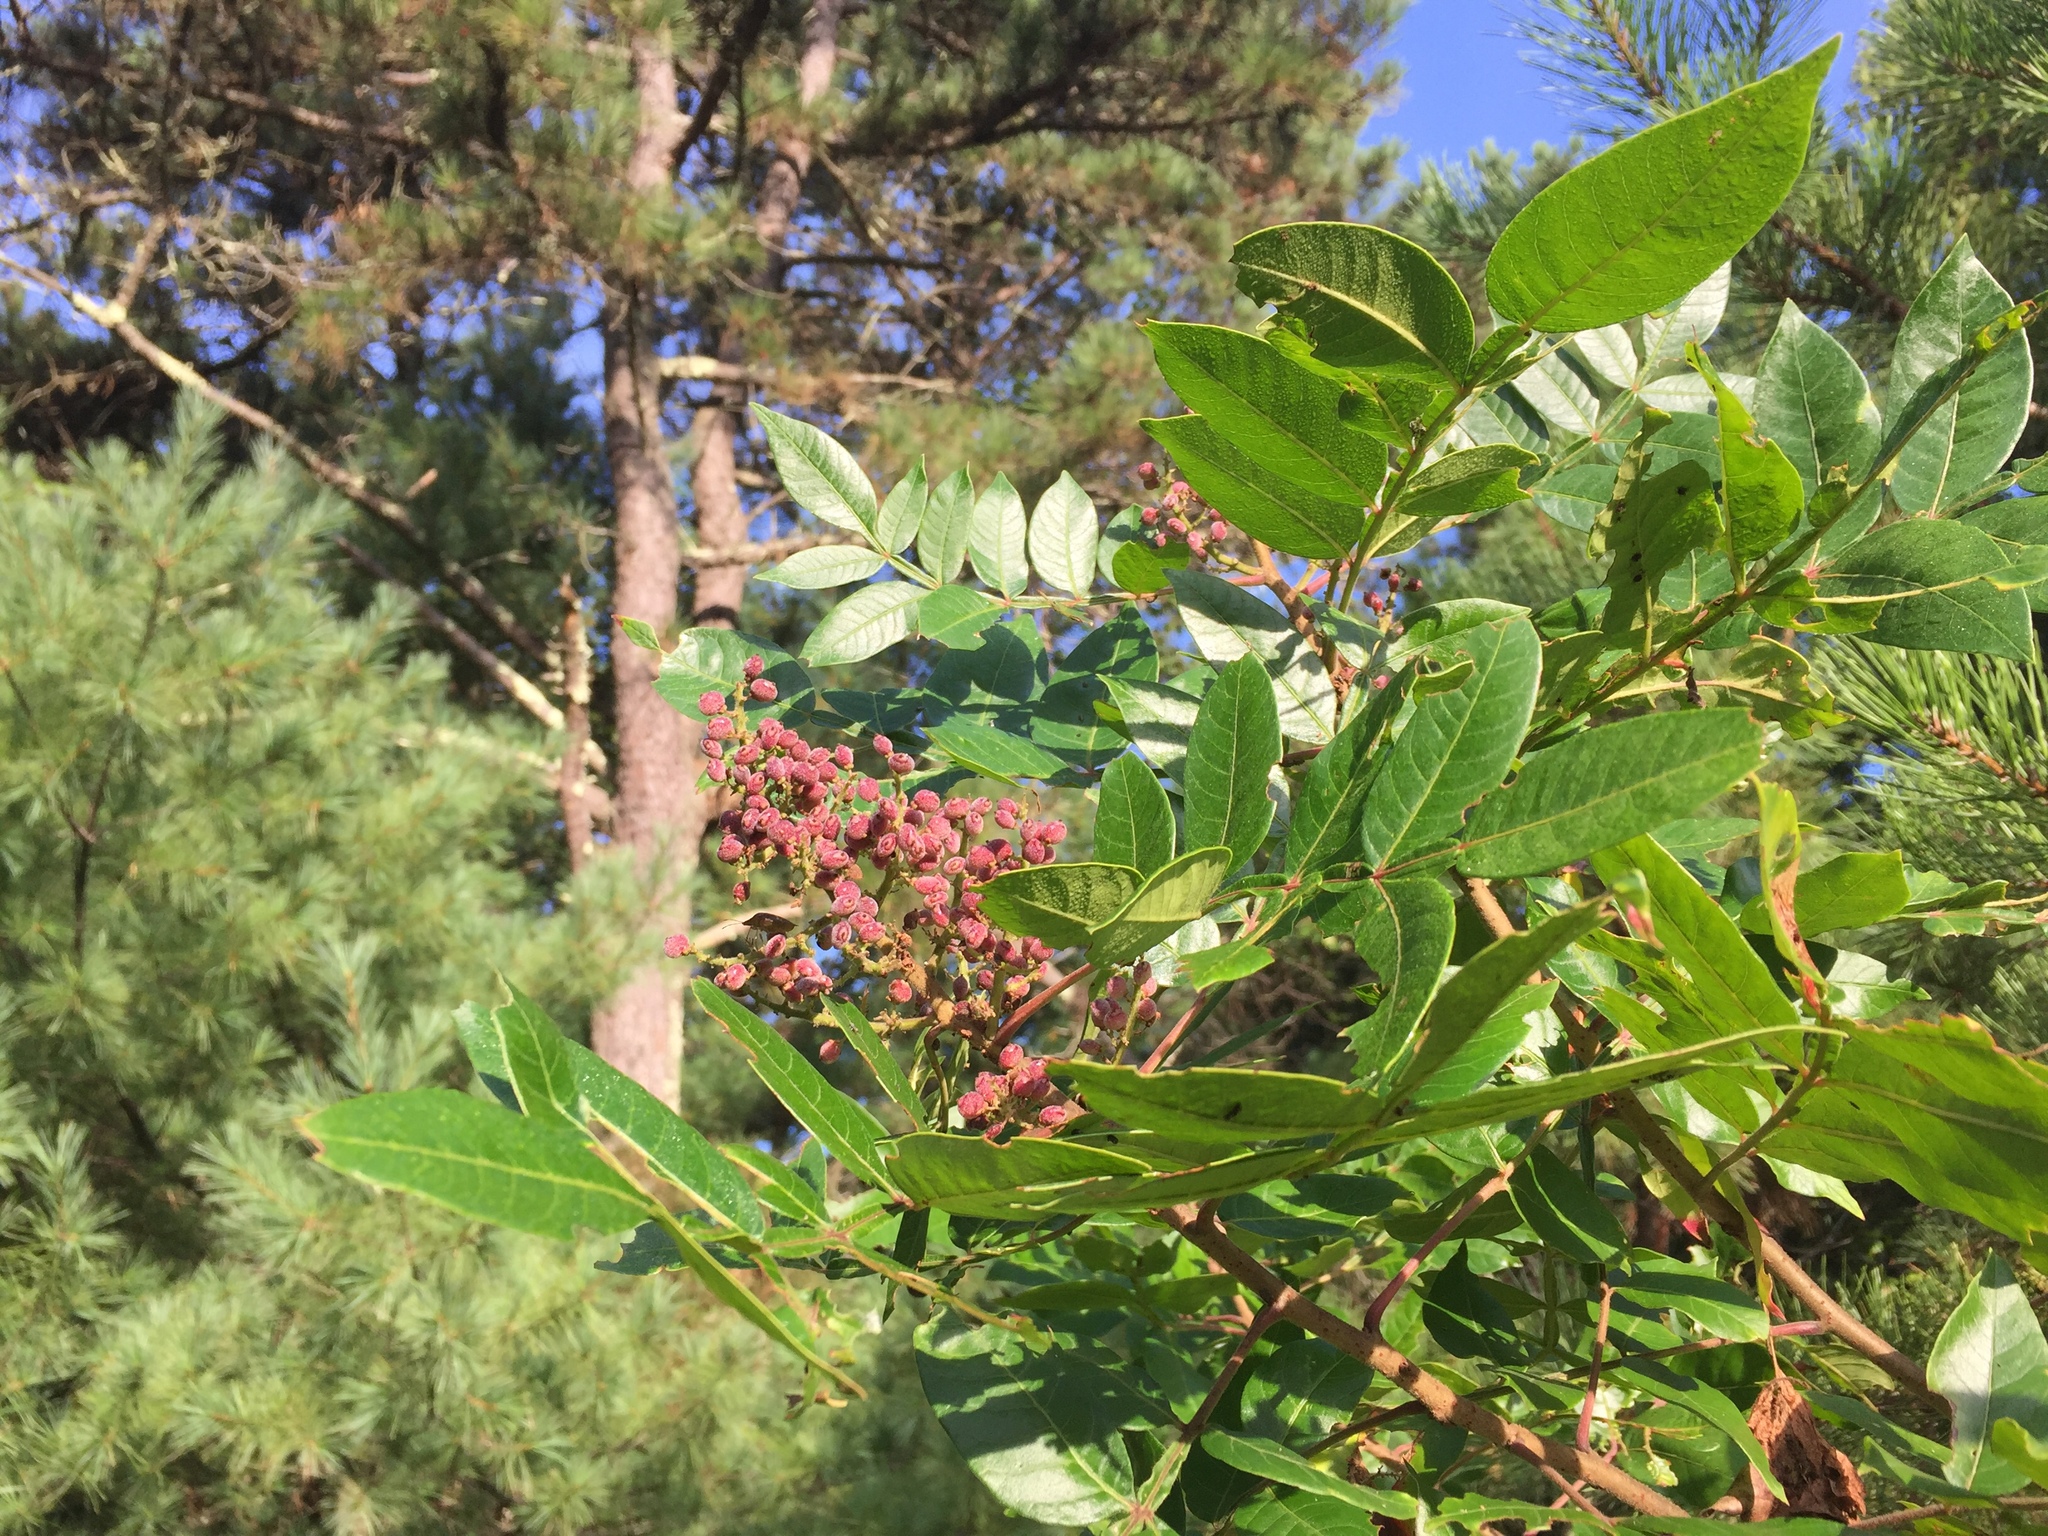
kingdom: Plantae
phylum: Tracheophyta
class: Magnoliopsida
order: Sapindales
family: Anacardiaceae
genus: Rhus
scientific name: Rhus copallina
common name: Shining sumac
